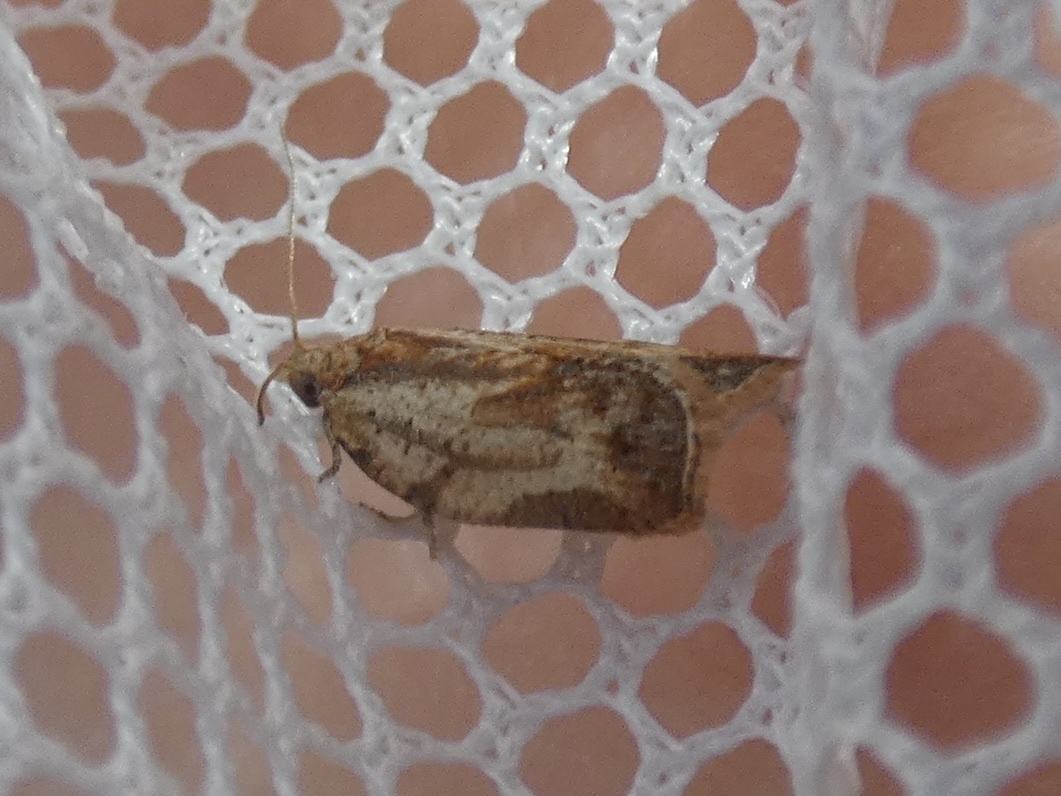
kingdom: Animalia
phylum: Arthropoda
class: Insecta
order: Lepidoptera
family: Tortricidae
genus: Epiphyas
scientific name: Epiphyas postvittana
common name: Light brown apple moth
